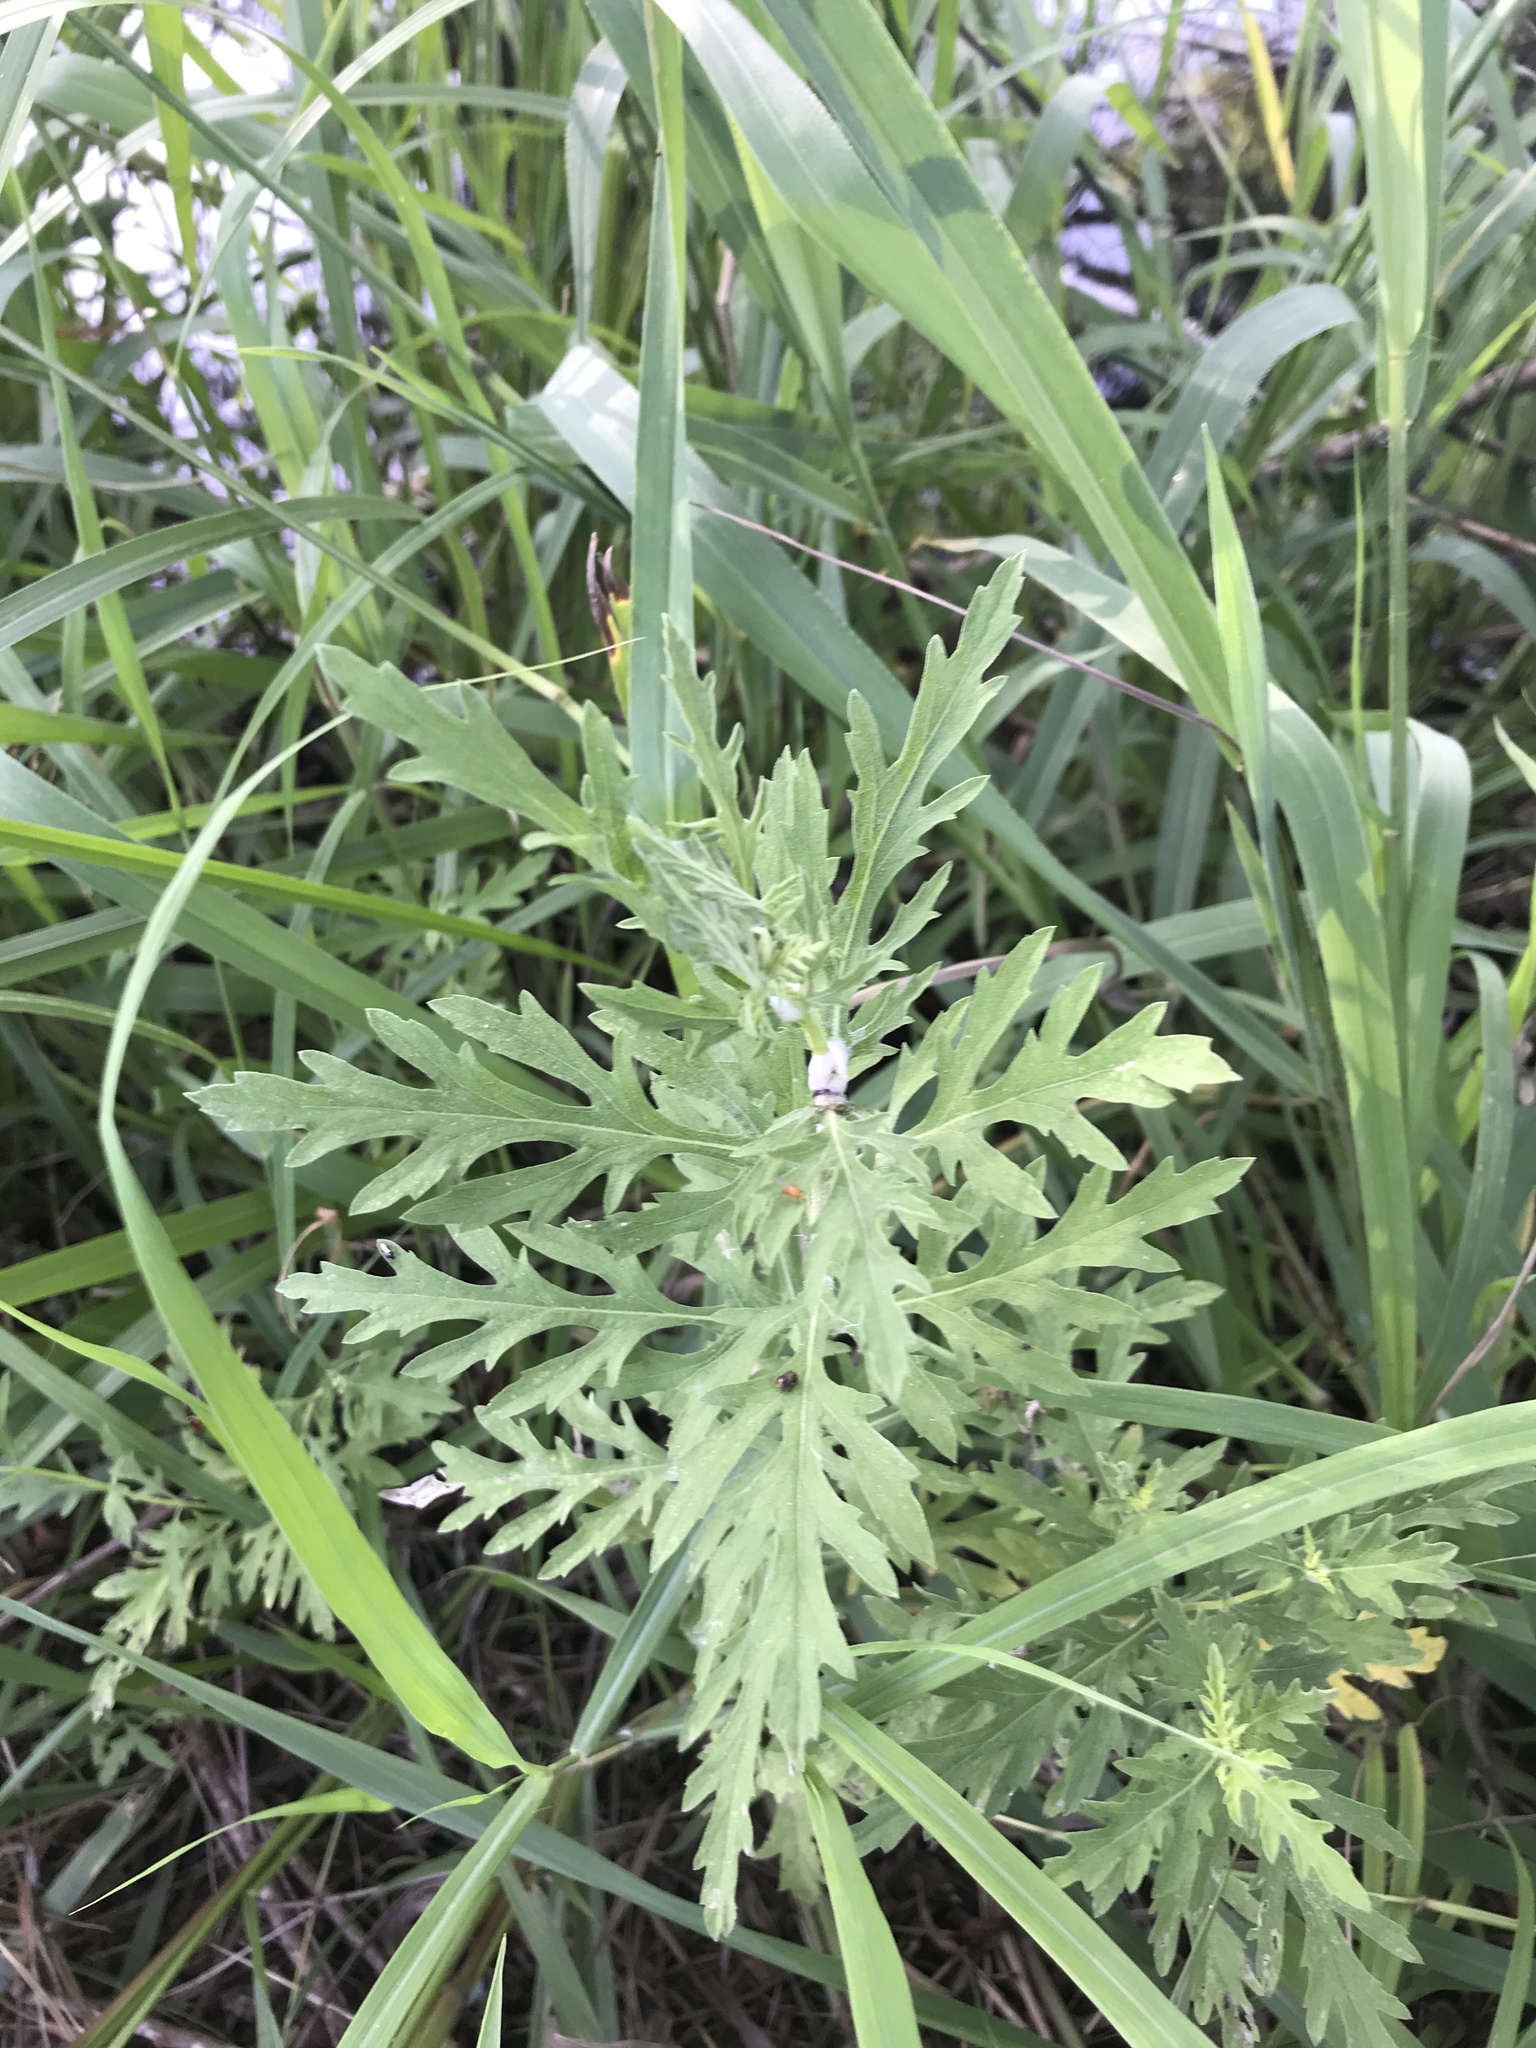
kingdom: Plantae
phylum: Tracheophyta
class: Magnoliopsida
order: Asterales
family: Asteraceae
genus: Ambrosia
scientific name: Ambrosia artemisiifolia
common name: Annual ragweed
